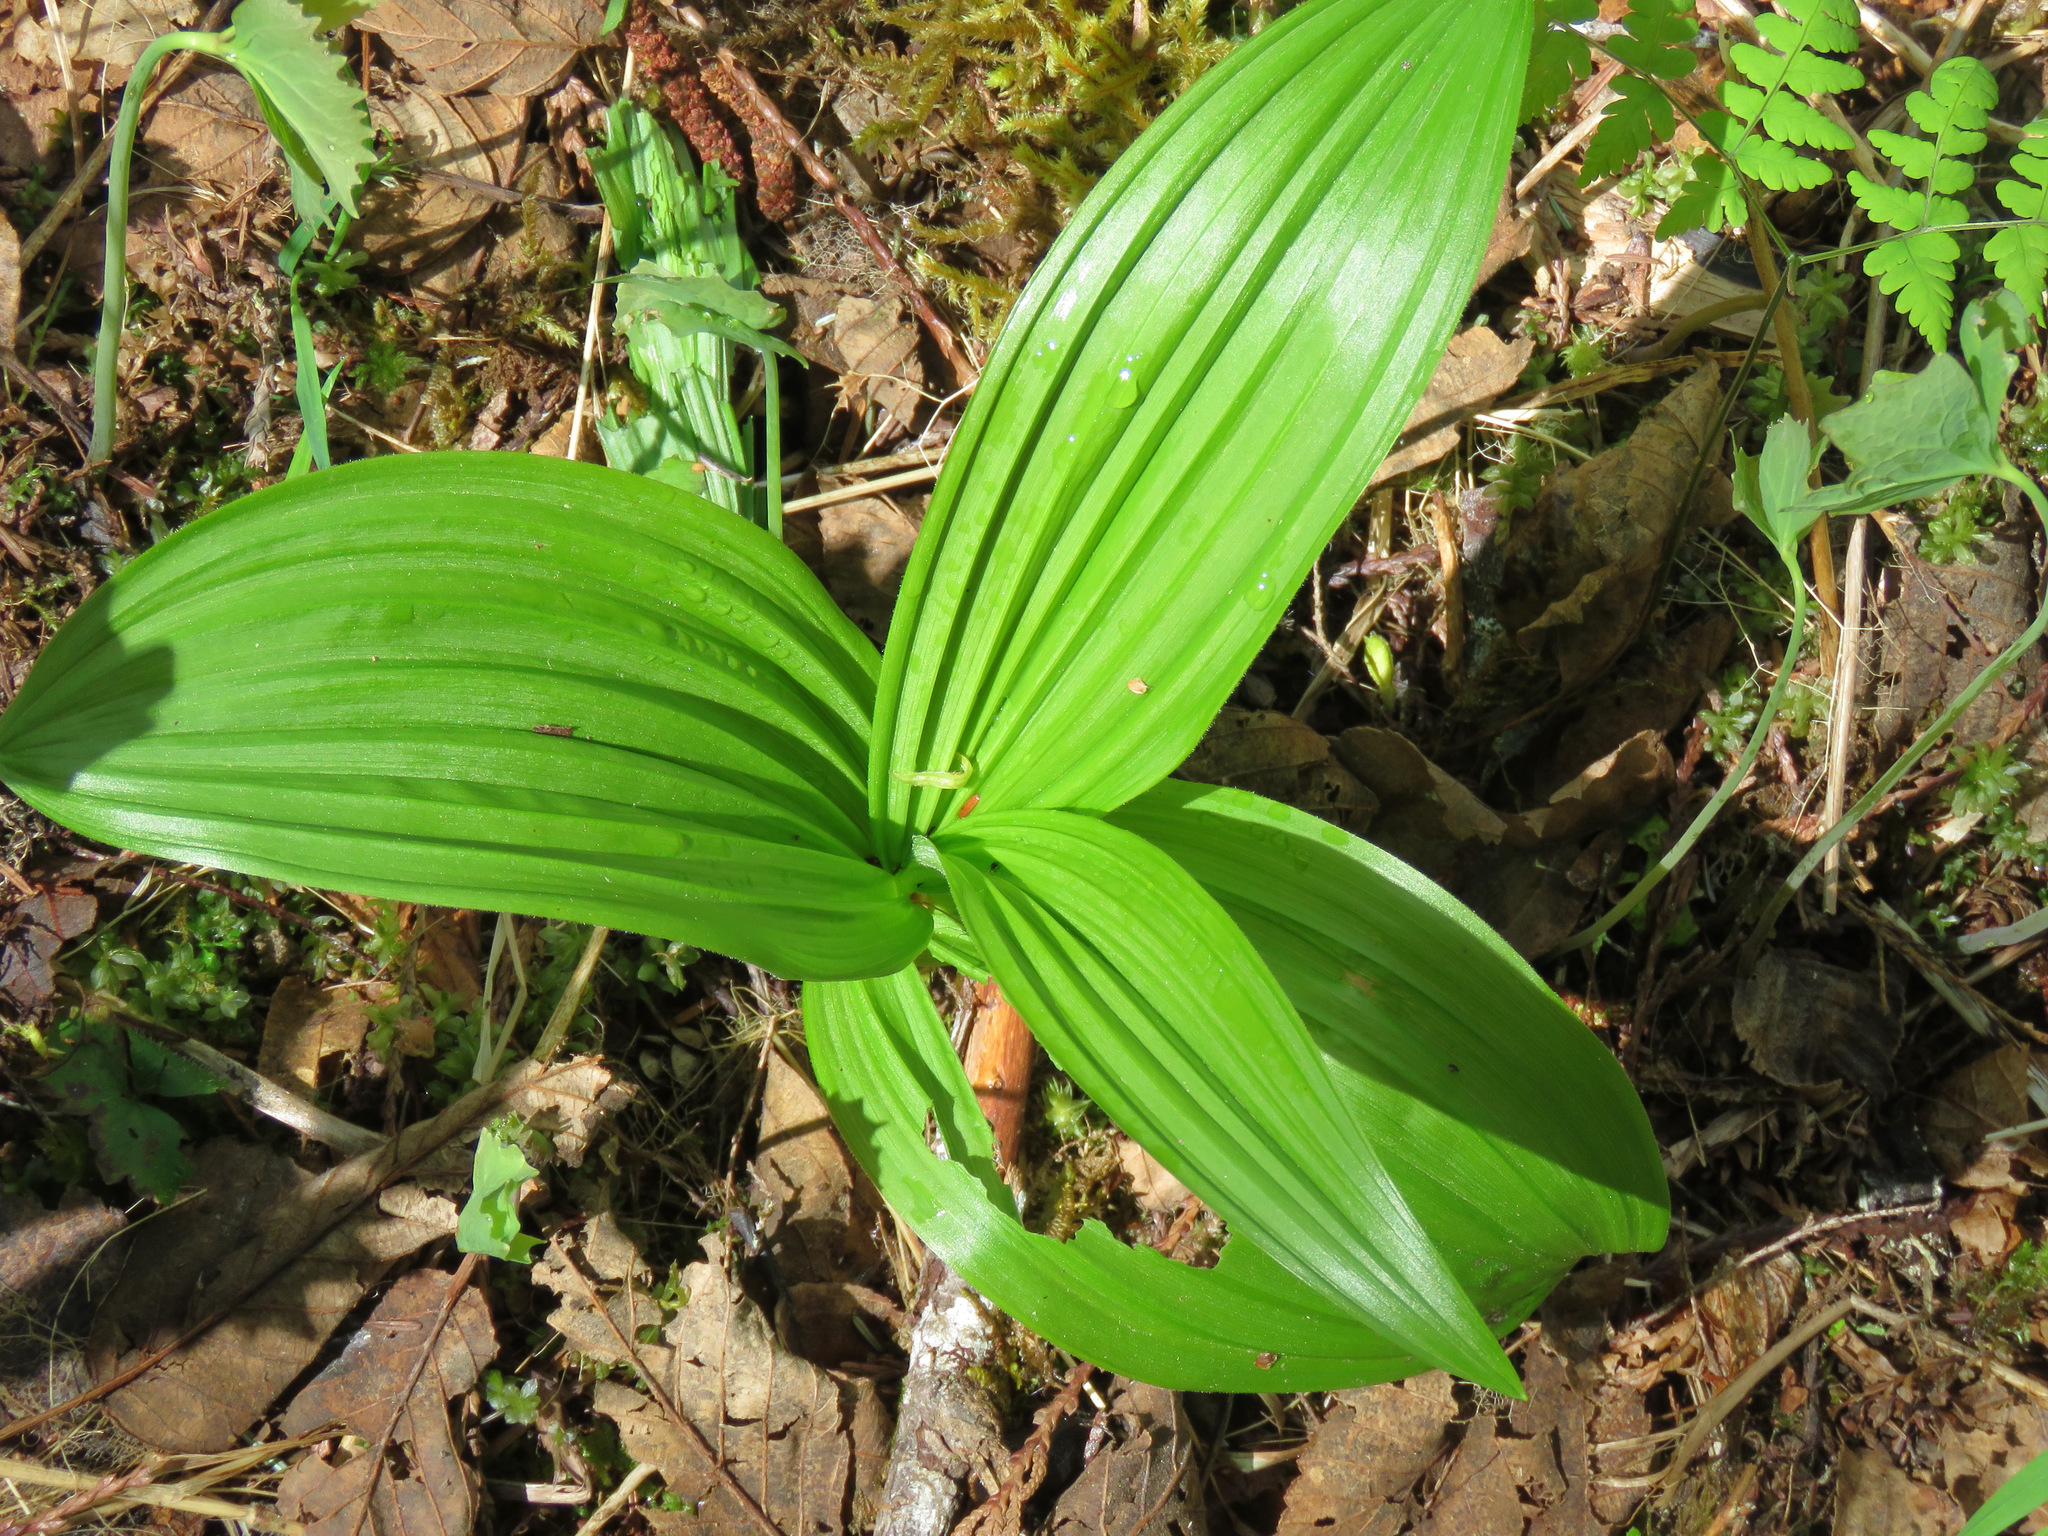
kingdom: Plantae
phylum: Tracheophyta
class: Liliopsida
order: Liliales
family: Melanthiaceae
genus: Veratrum
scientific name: Veratrum viride
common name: American false hellebore
